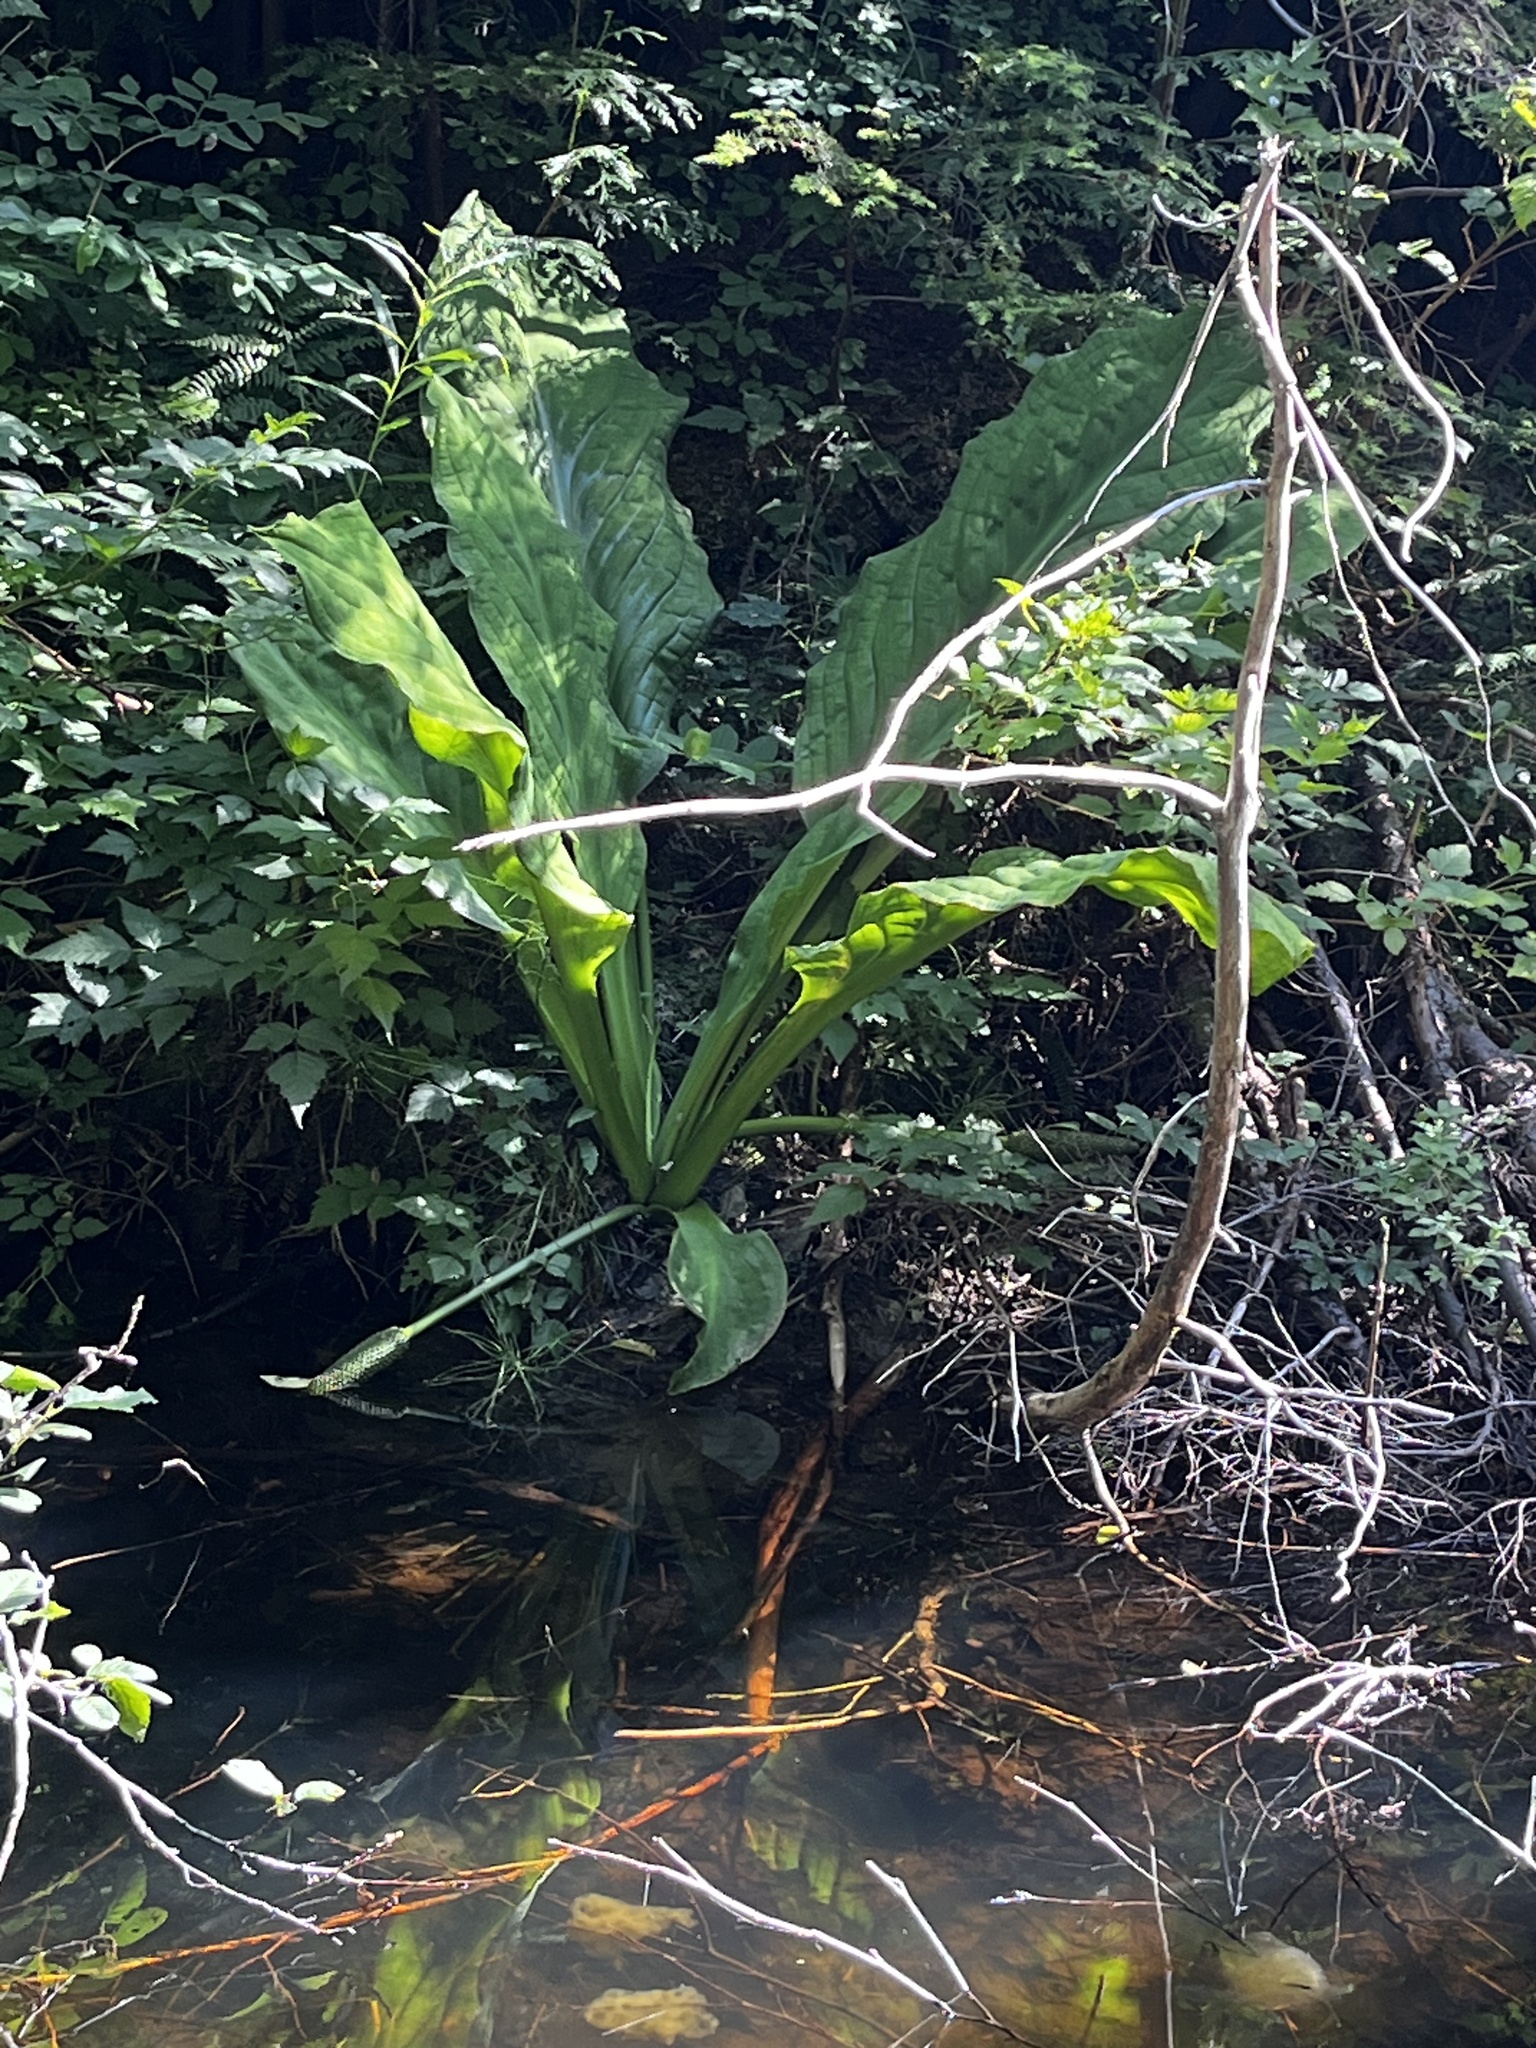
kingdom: Plantae
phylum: Tracheophyta
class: Liliopsida
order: Alismatales
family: Araceae
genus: Lysichiton
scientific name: Lysichiton americanus
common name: American skunk cabbage
